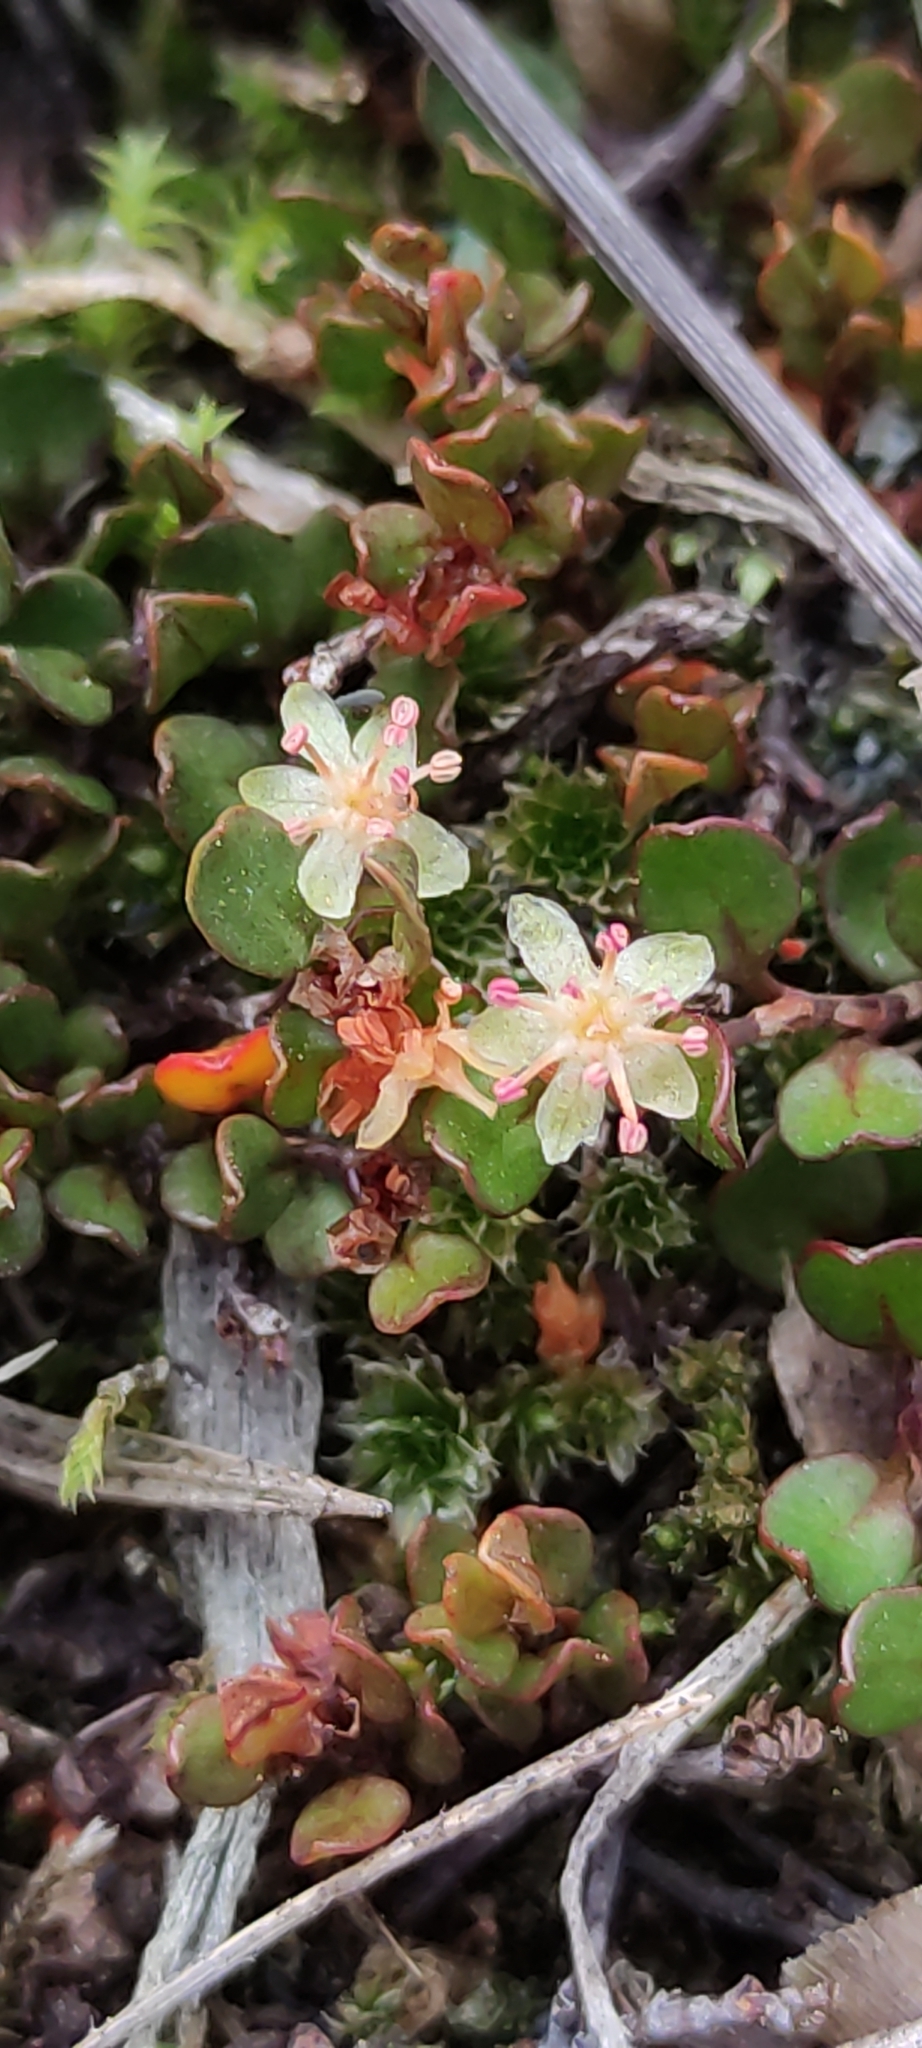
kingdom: Plantae
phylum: Tracheophyta
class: Magnoliopsida
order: Caryophyllales
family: Polygonaceae
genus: Muehlenbeckia
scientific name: Muehlenbeckia axillaris
